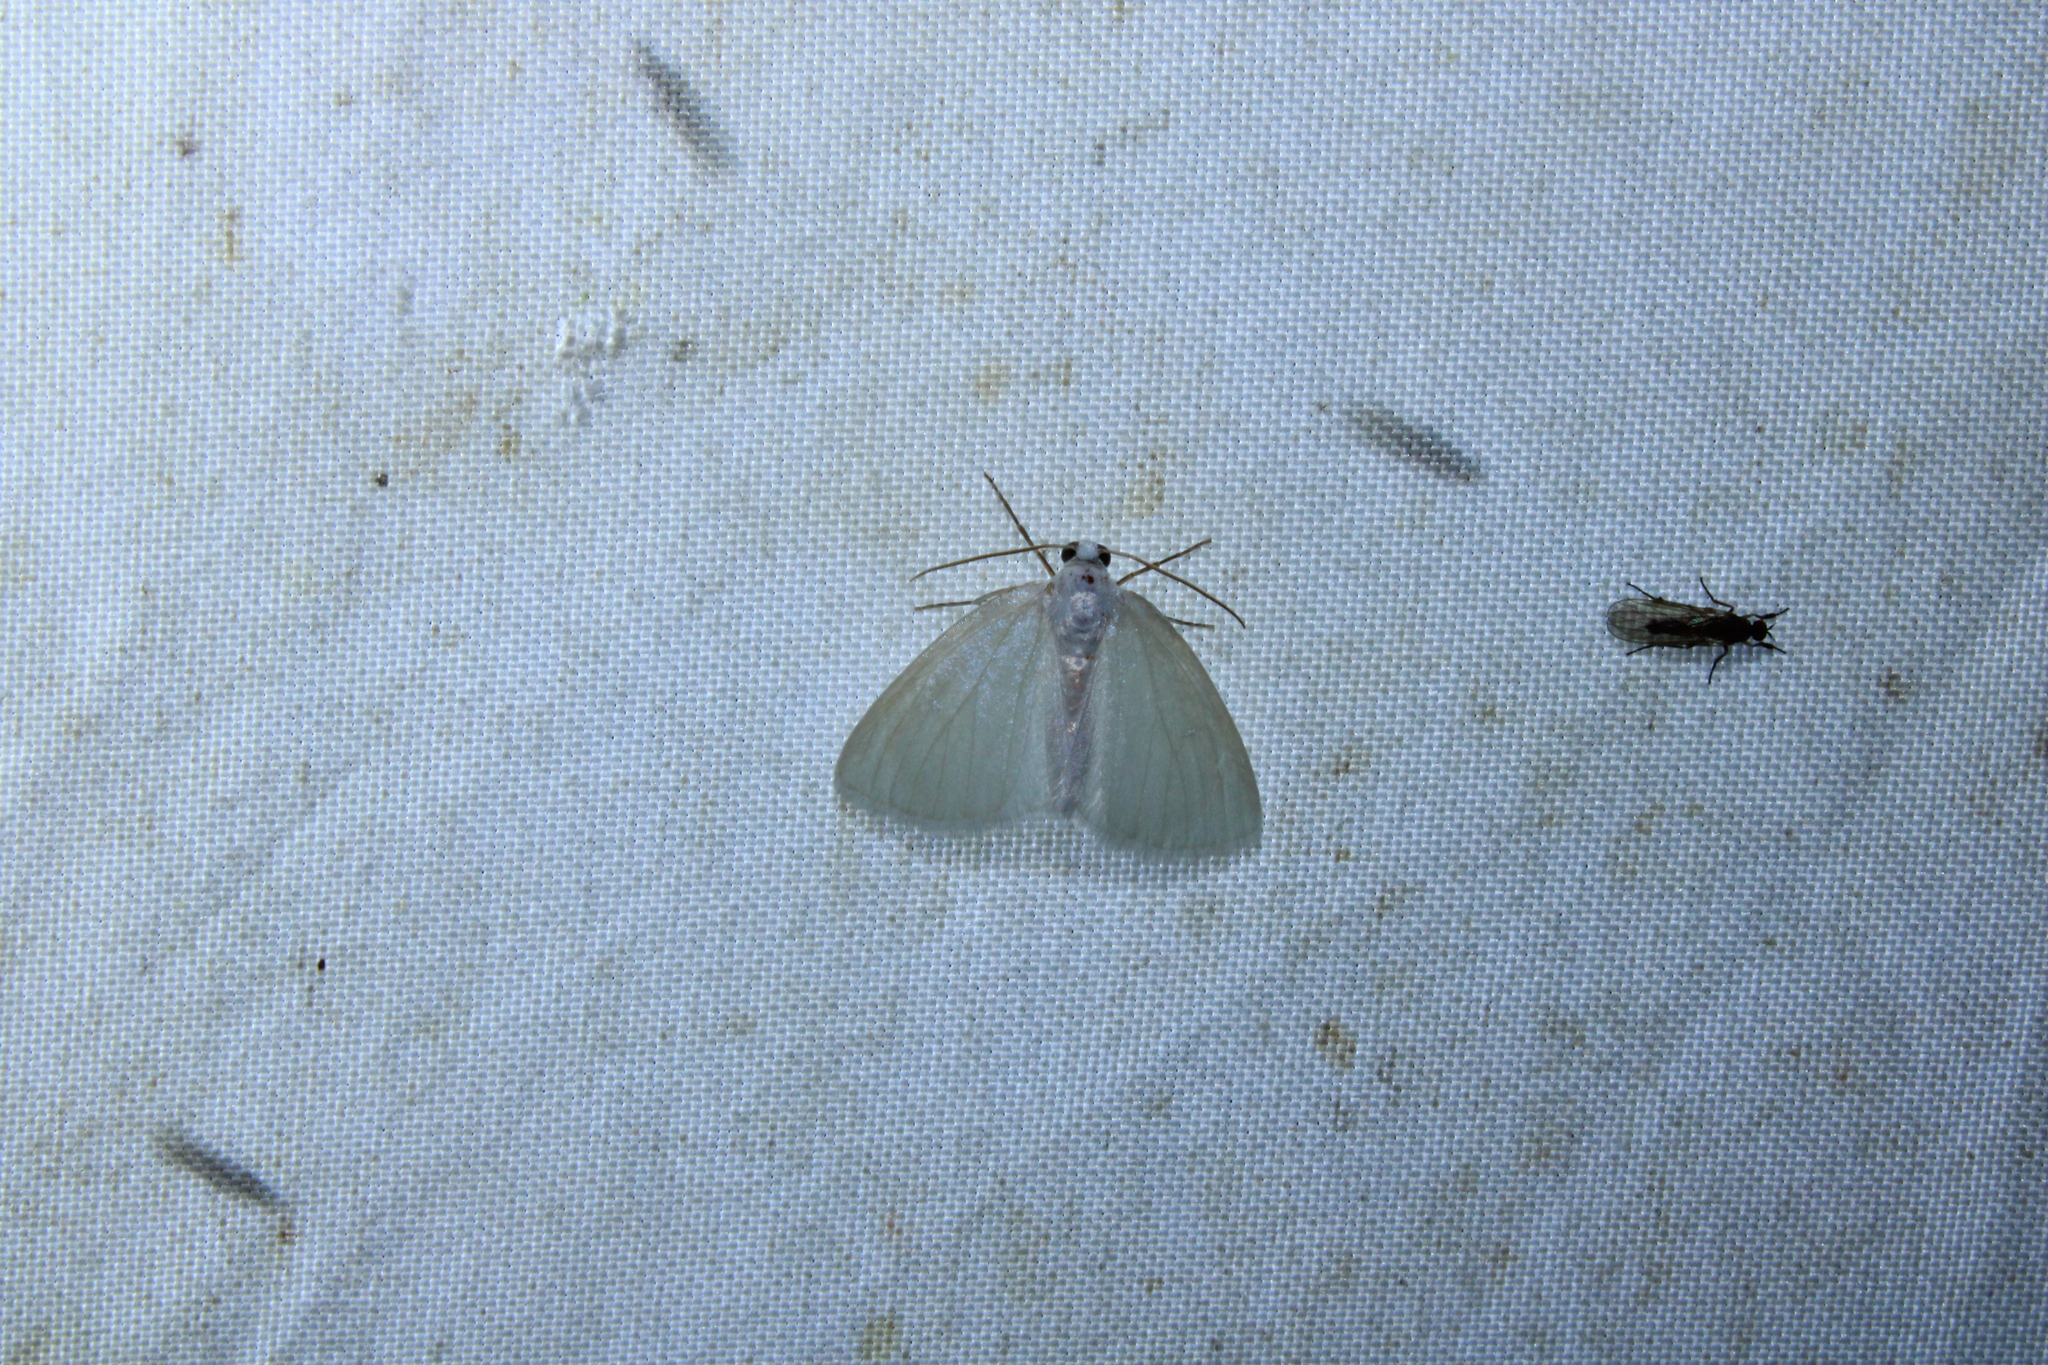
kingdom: Animalia
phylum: Arthropoda
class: Insecta
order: Lepidoptera
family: Geometridae
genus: Lomographa
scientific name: Lomographa vestaliata
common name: White spring moth
